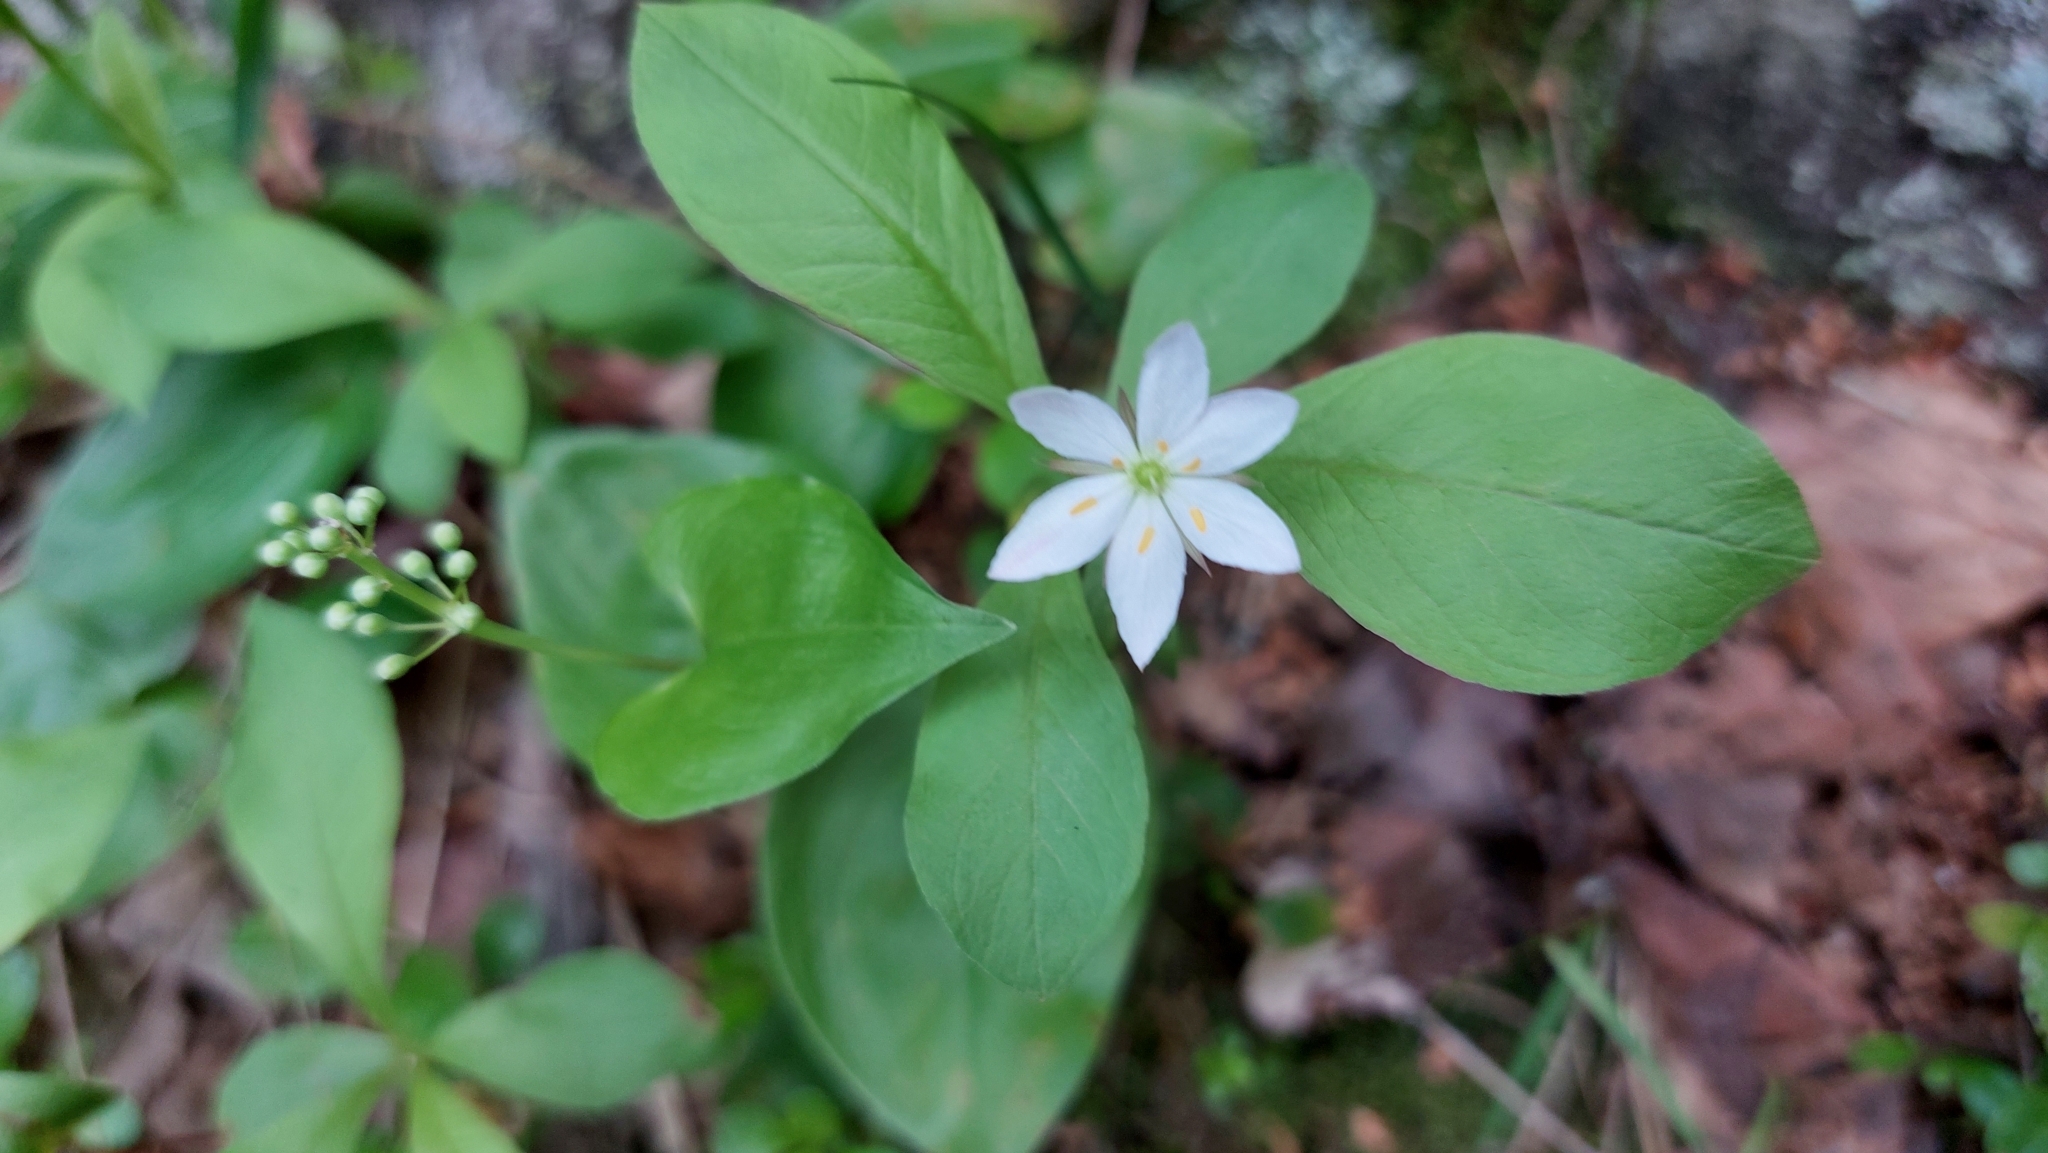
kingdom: Plantae
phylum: Tracheophyta
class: Magnoliopsida
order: Ericales
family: Primulaceae
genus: Lysimachia
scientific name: Lysimachia europaea
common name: Arctic starflower
